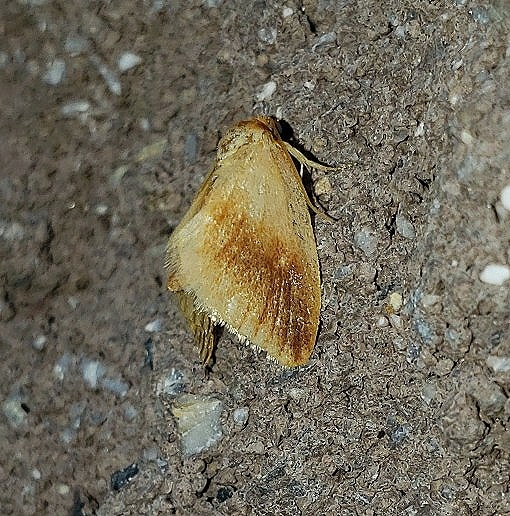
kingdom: Animalia
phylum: Arthropoda
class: Insecta
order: Lepidoptera
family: Limacodidae
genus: Tortricidia
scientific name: Tortricidia testacea
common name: Early button slug moth
